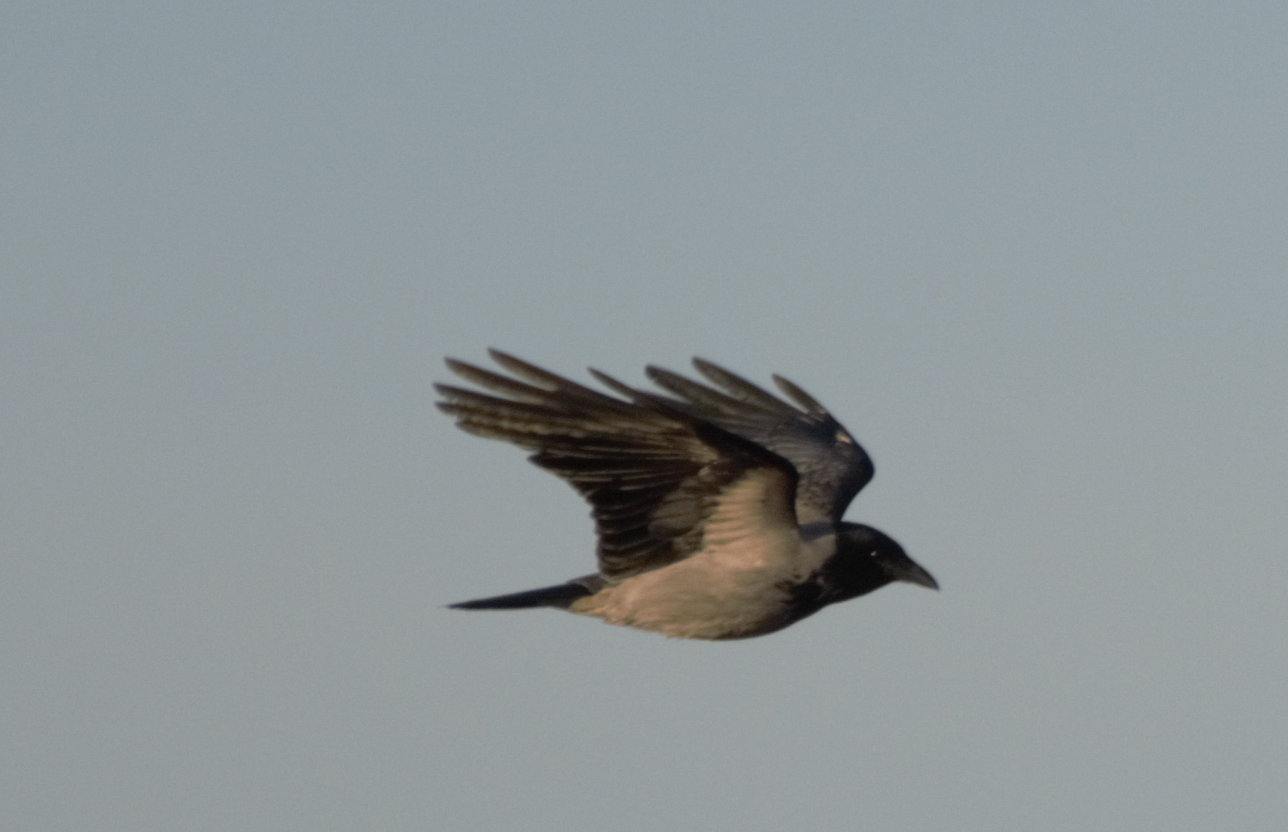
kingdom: Animalia
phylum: Chordata
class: Aves
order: Passeriformes
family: Corvidae
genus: Corvus
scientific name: Corvus cornix
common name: Hooded crow
